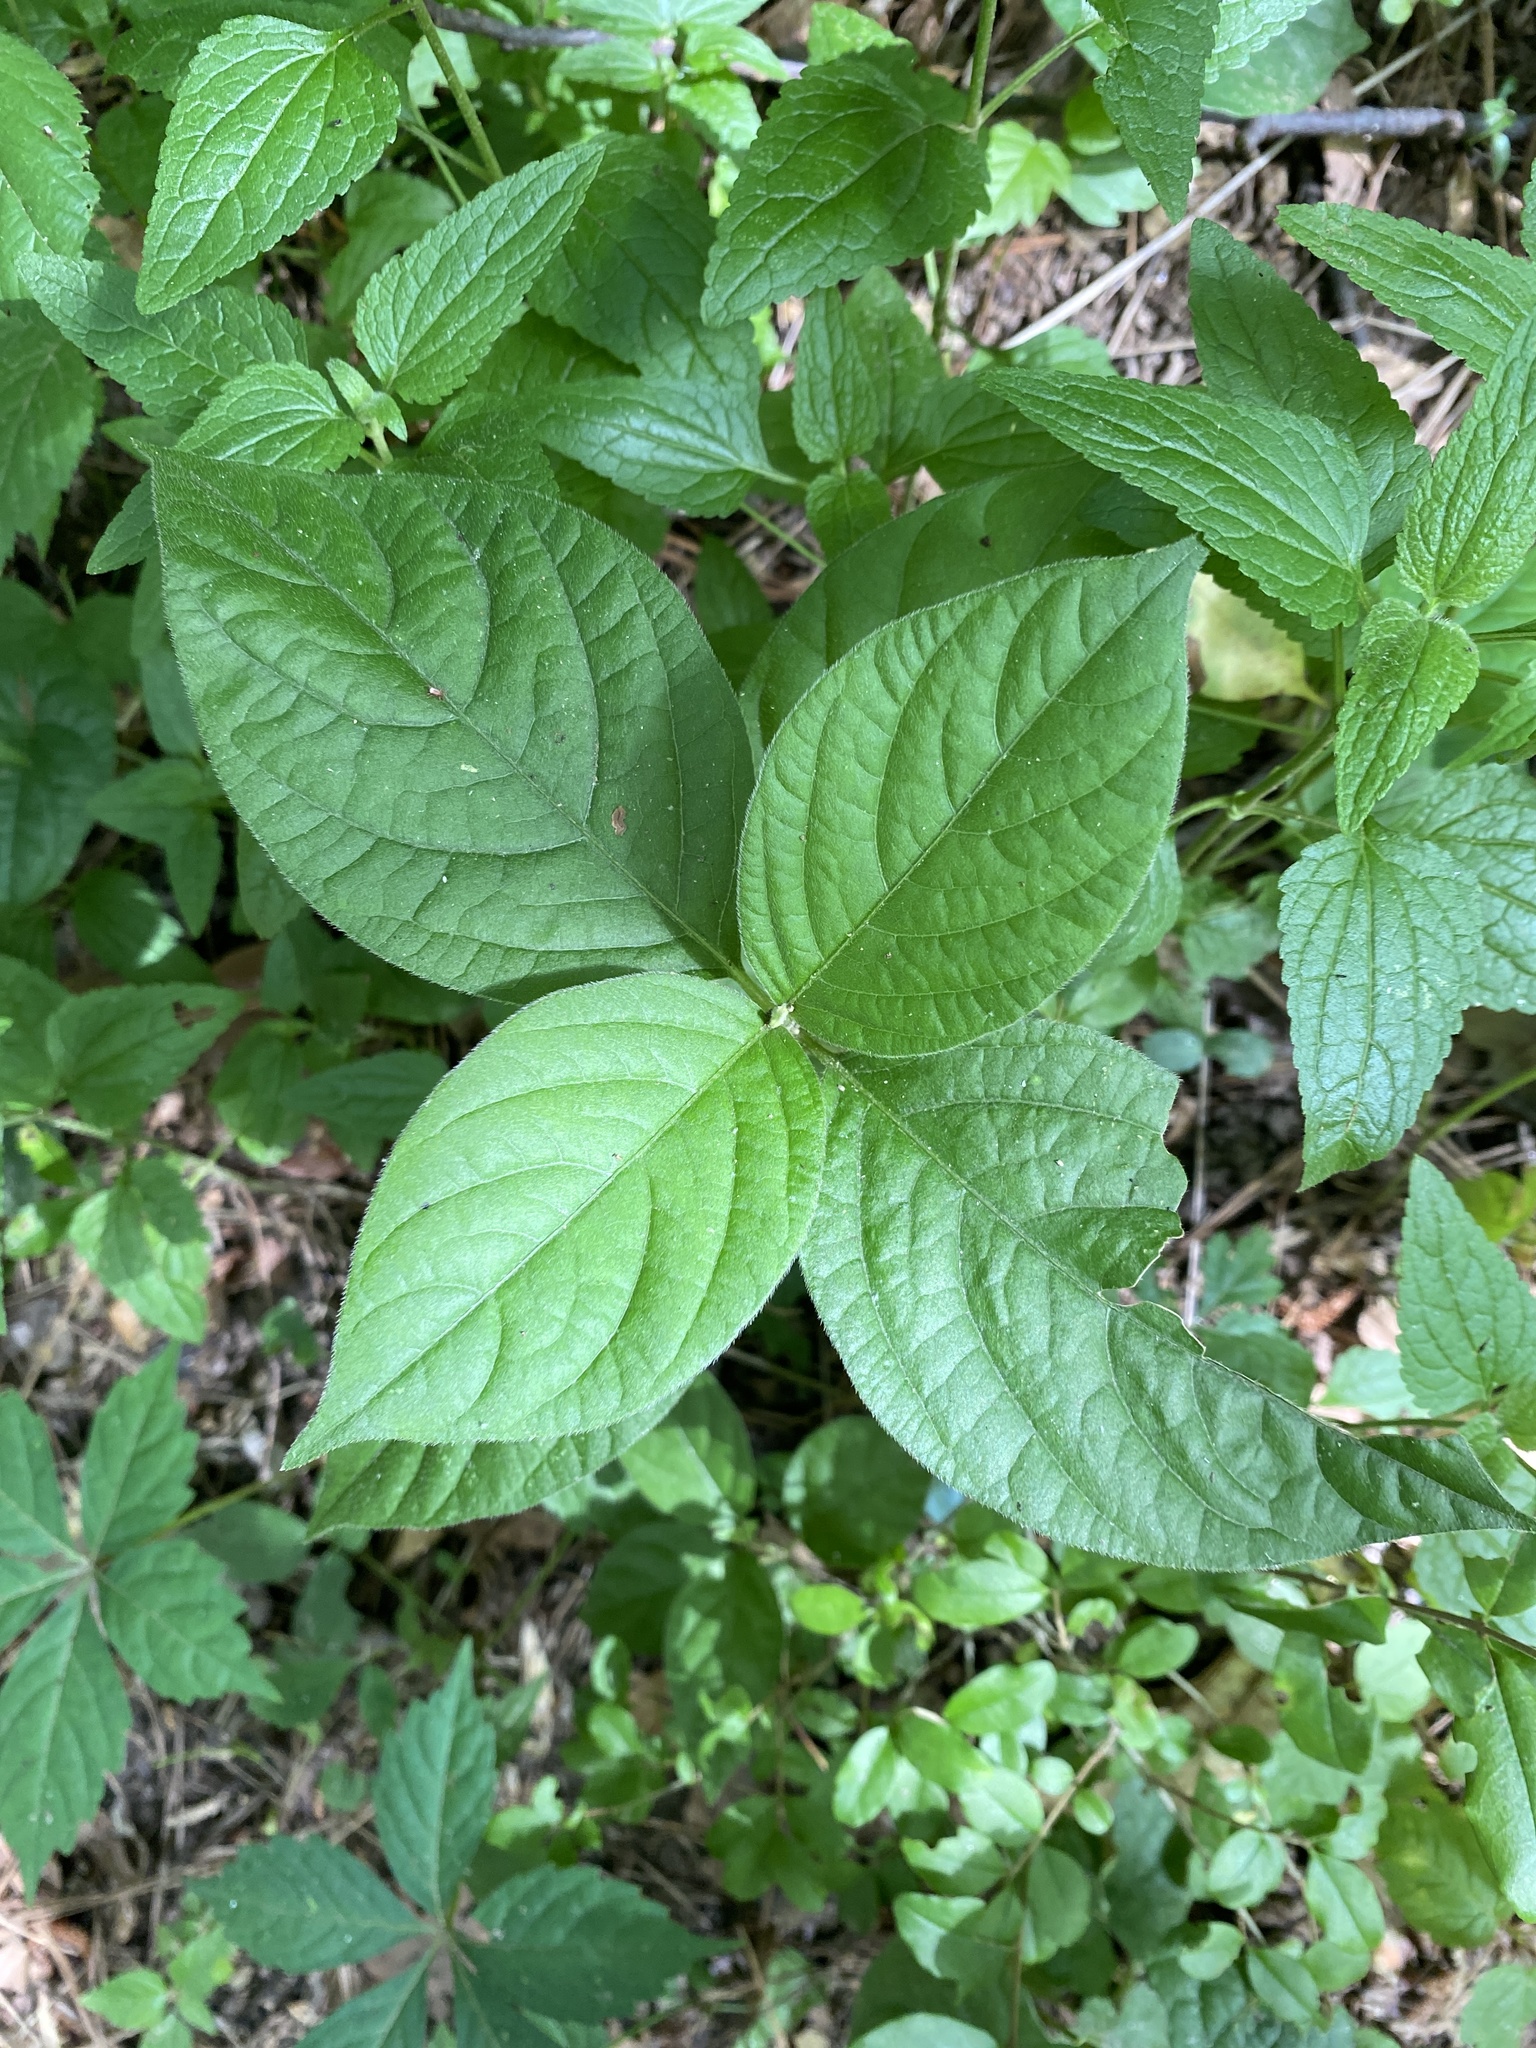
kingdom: Plantae
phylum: Tracheophyta
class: Magnoliopsida
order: Caryophyllales
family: Amaranthaceae
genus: Achyranthes
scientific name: Achyranthes bidentata
